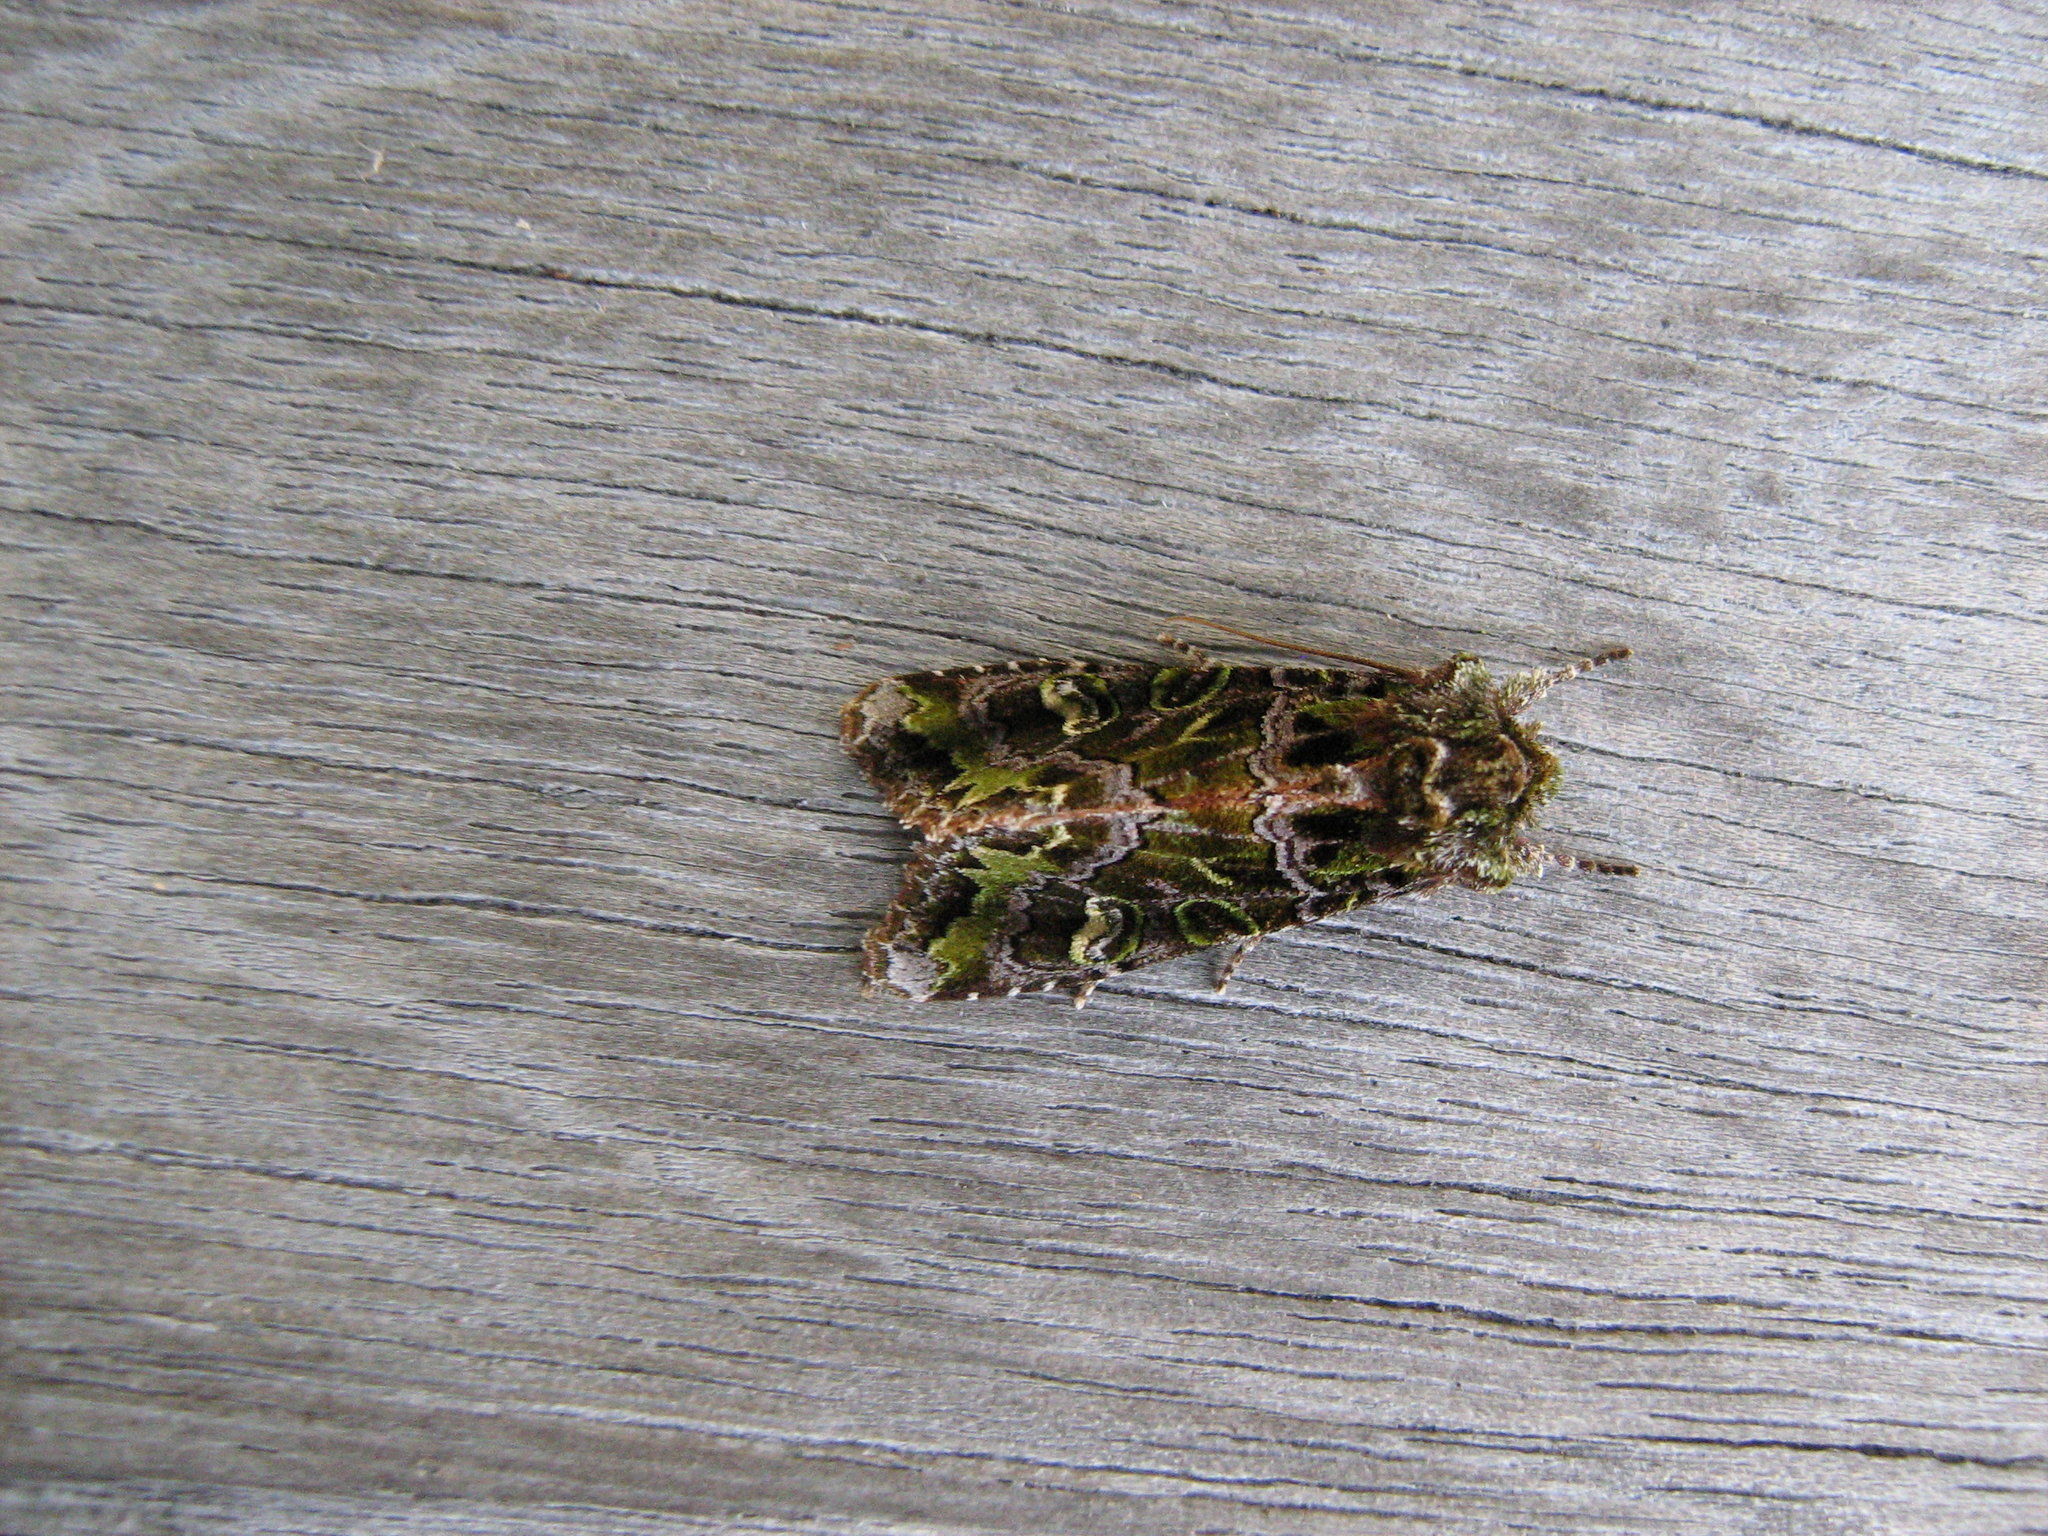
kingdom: Animalia
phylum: Arthropoda
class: Insecta
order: Lepidoptera
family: Noctuidae
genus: Ichneutica
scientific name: Ichneutica chlorodonta
